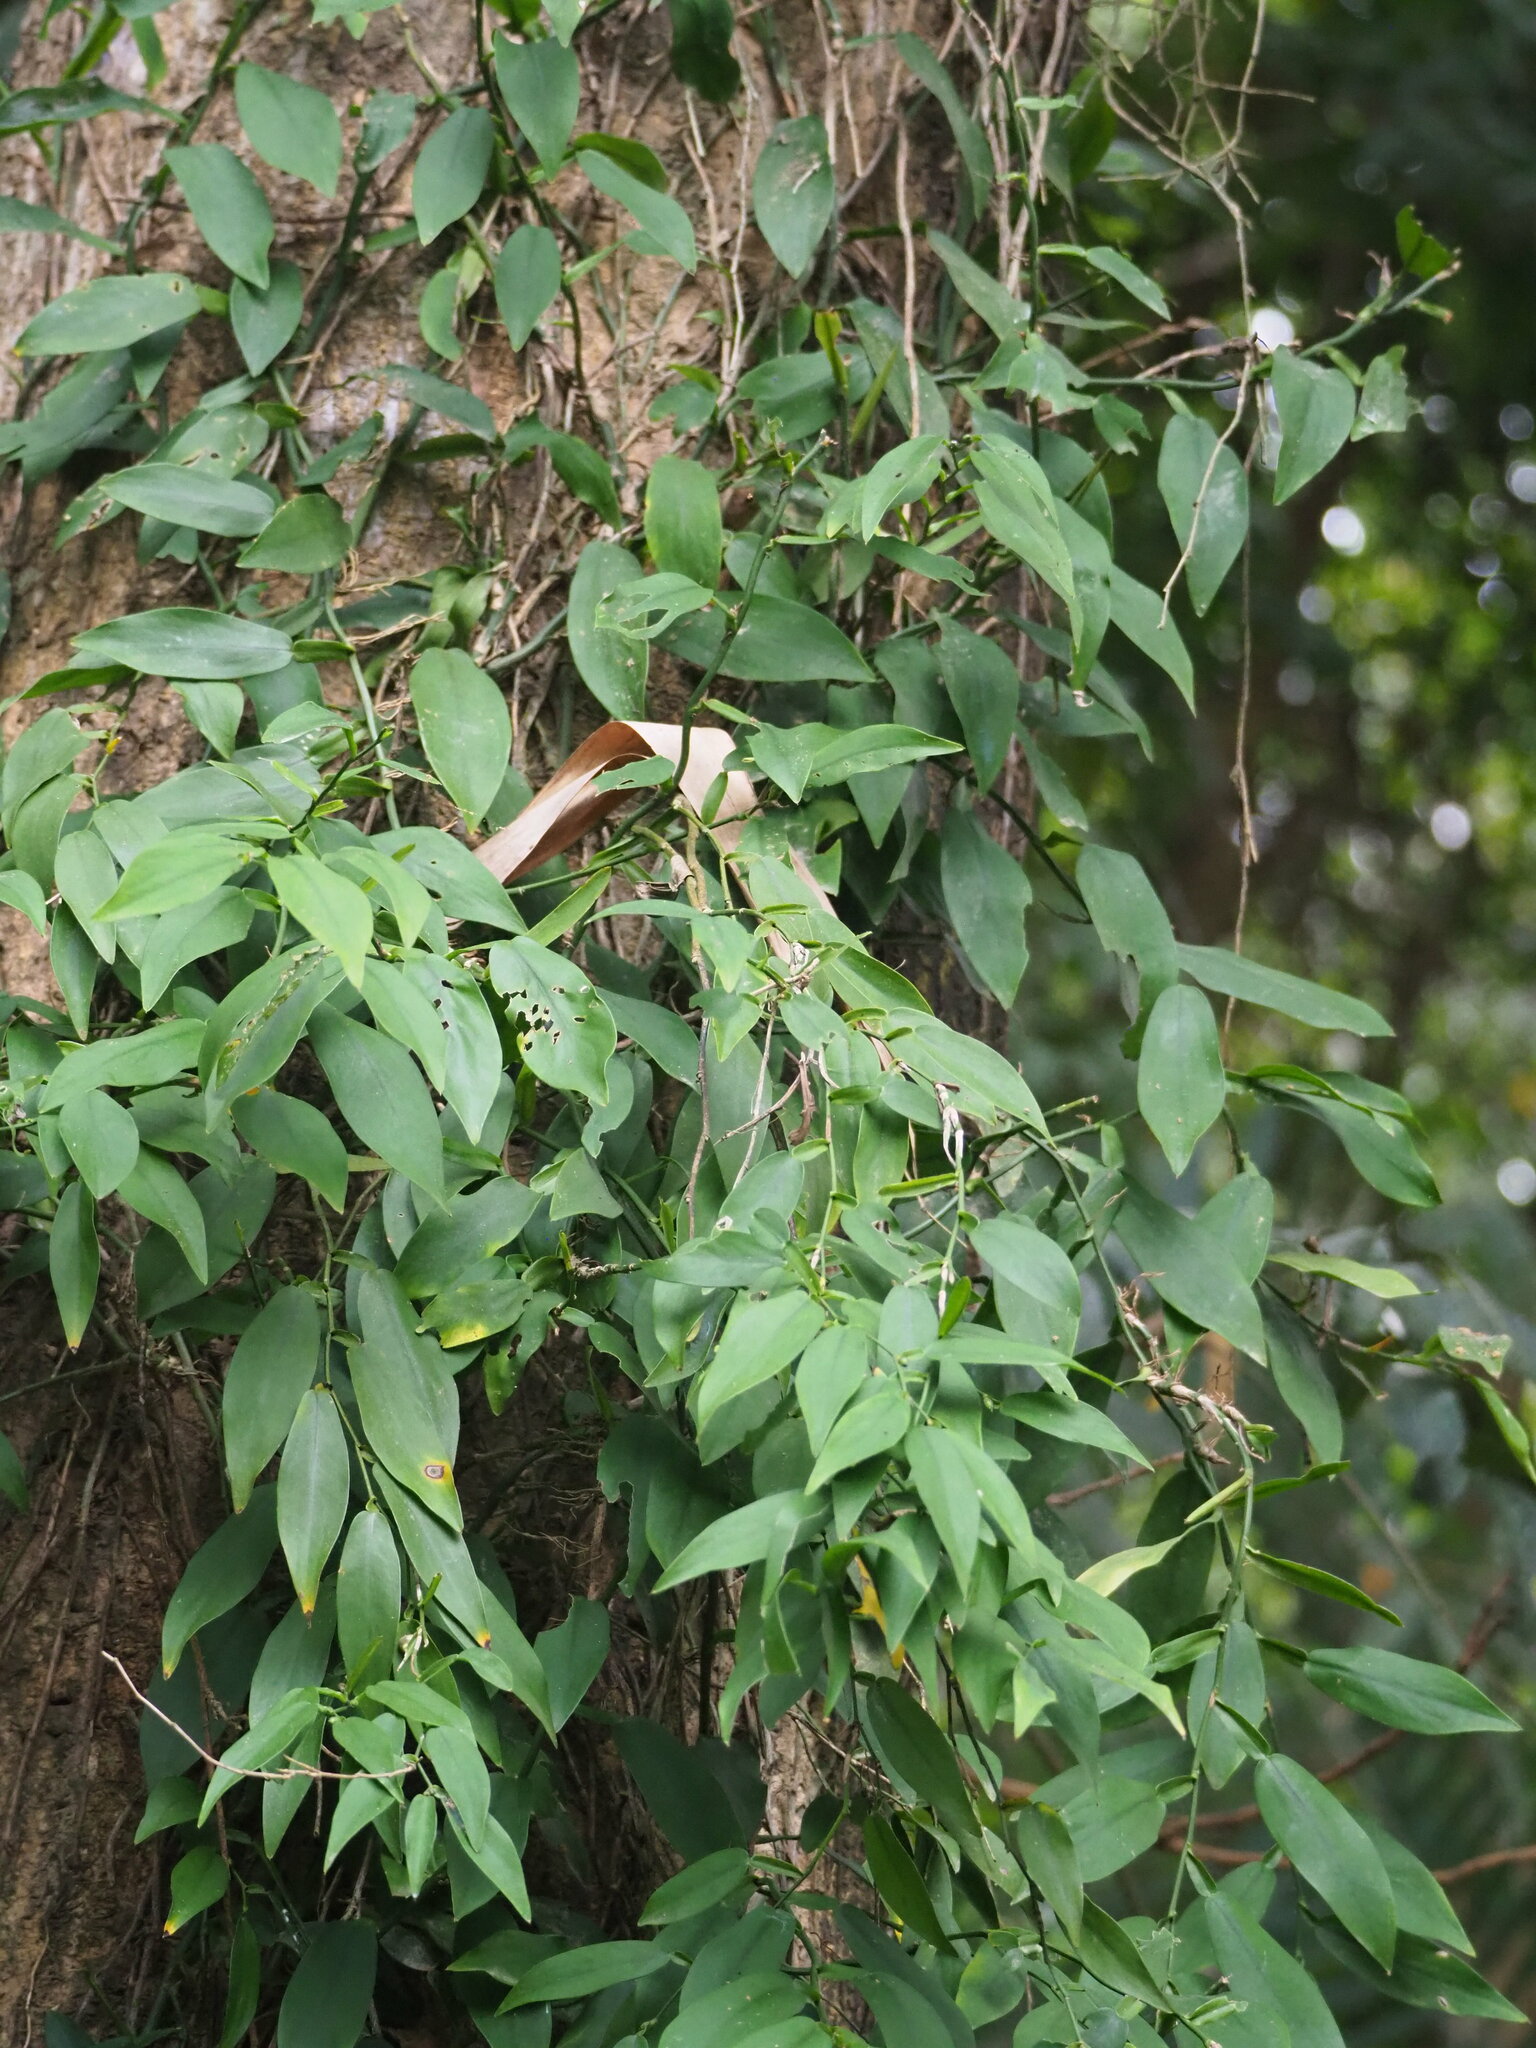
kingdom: Plantae
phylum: Tracheophyta
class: Liliopsida
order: Alismatales
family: Araceae
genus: Pothos
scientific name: Pothos chinensis
